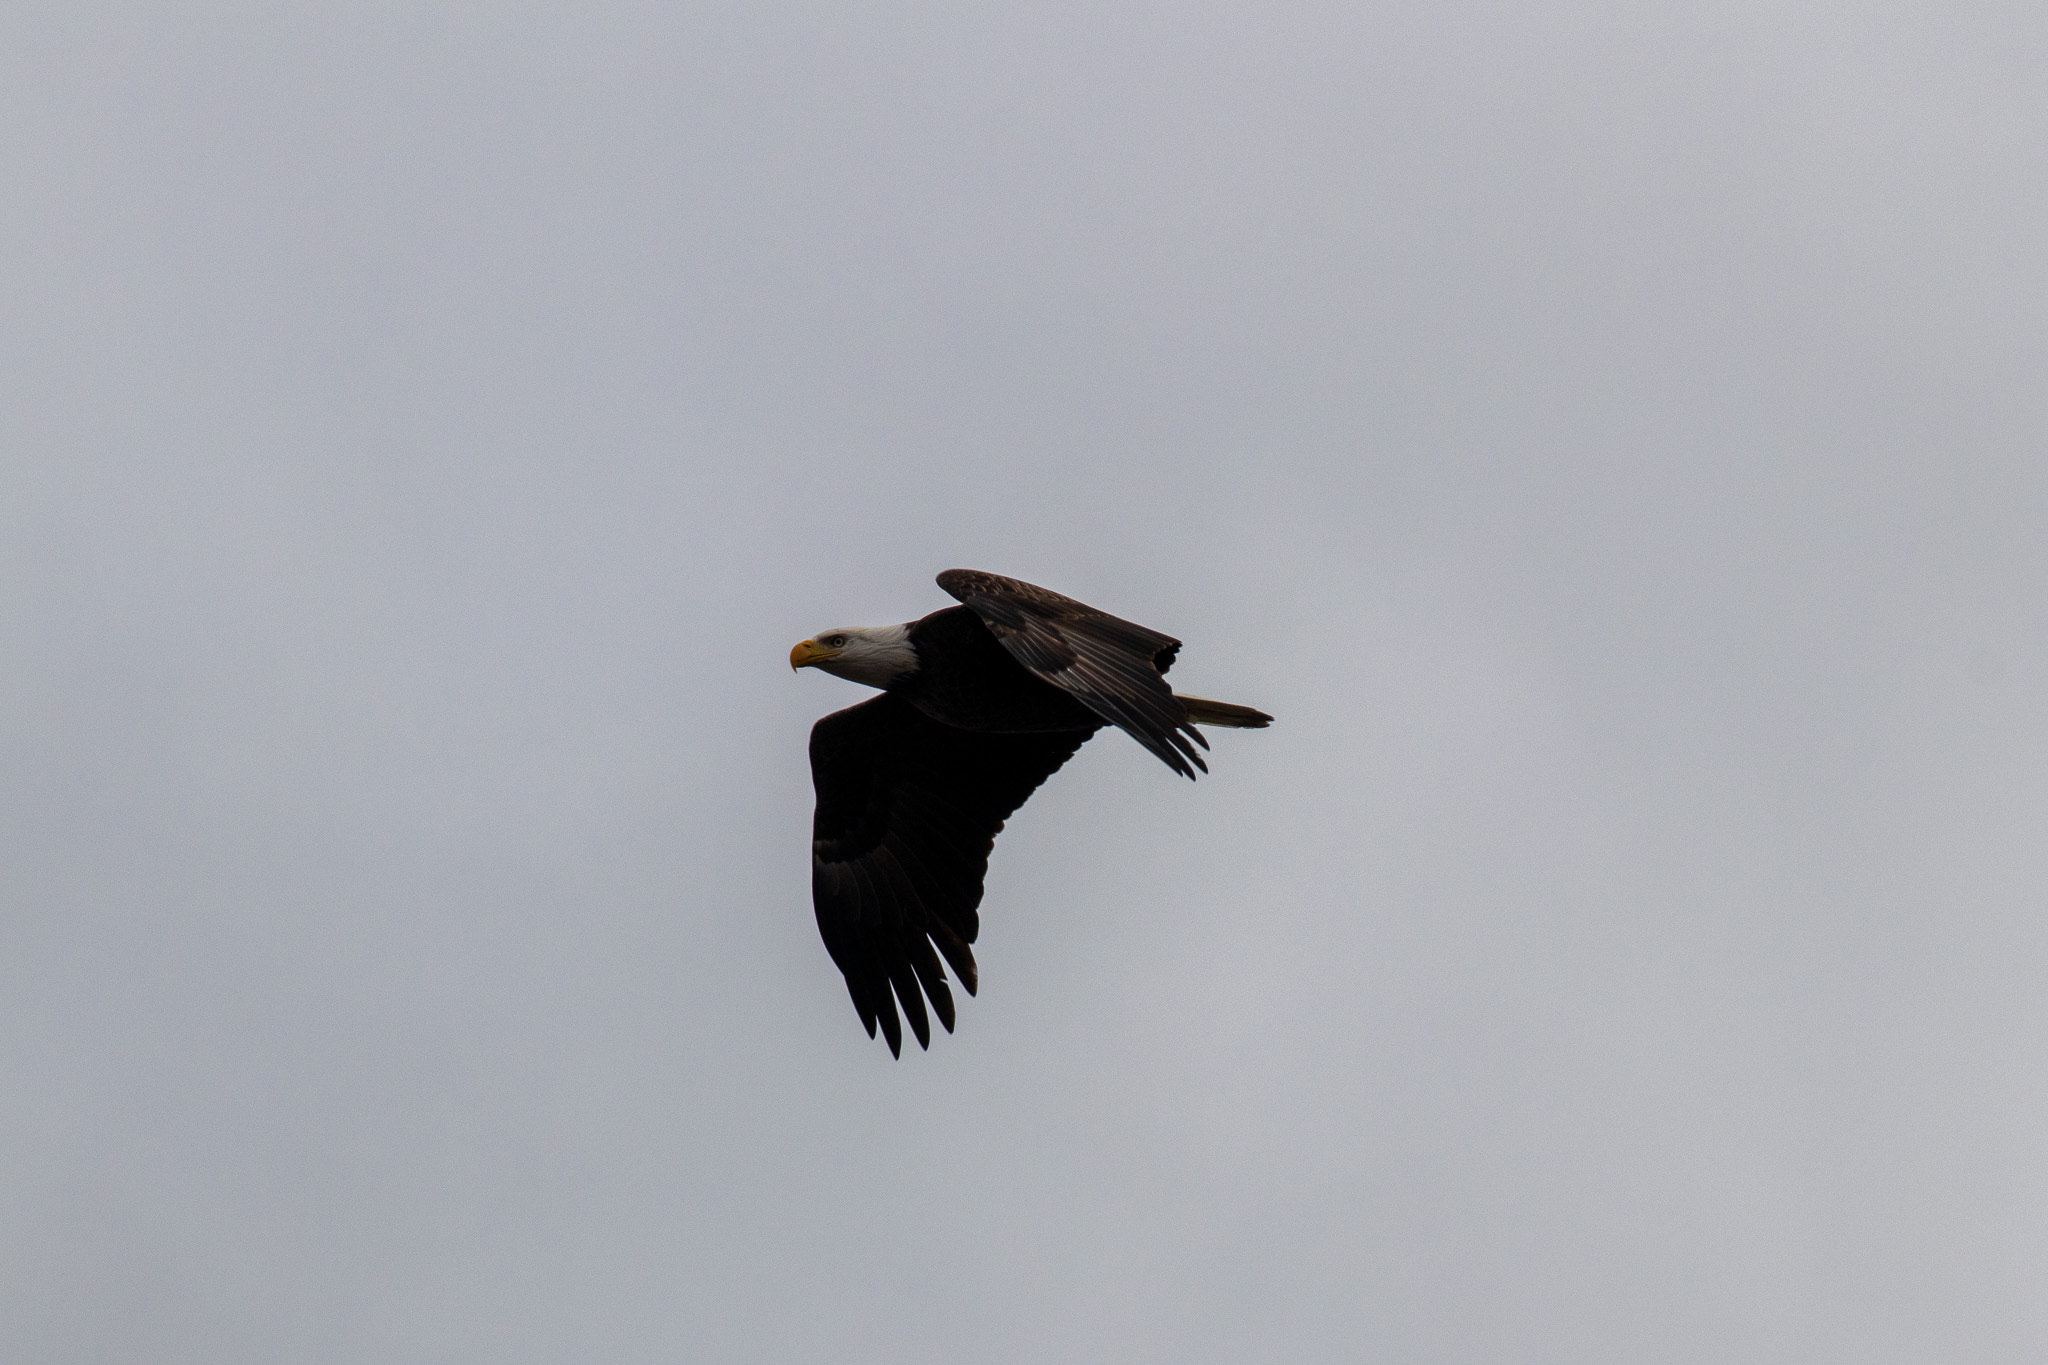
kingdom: Animalia
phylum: Chordata
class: Aves
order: Accipitriformes
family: Accipitridae
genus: Haliaeetus
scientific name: Haliaeetus leucocephalus
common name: Bald eagle
